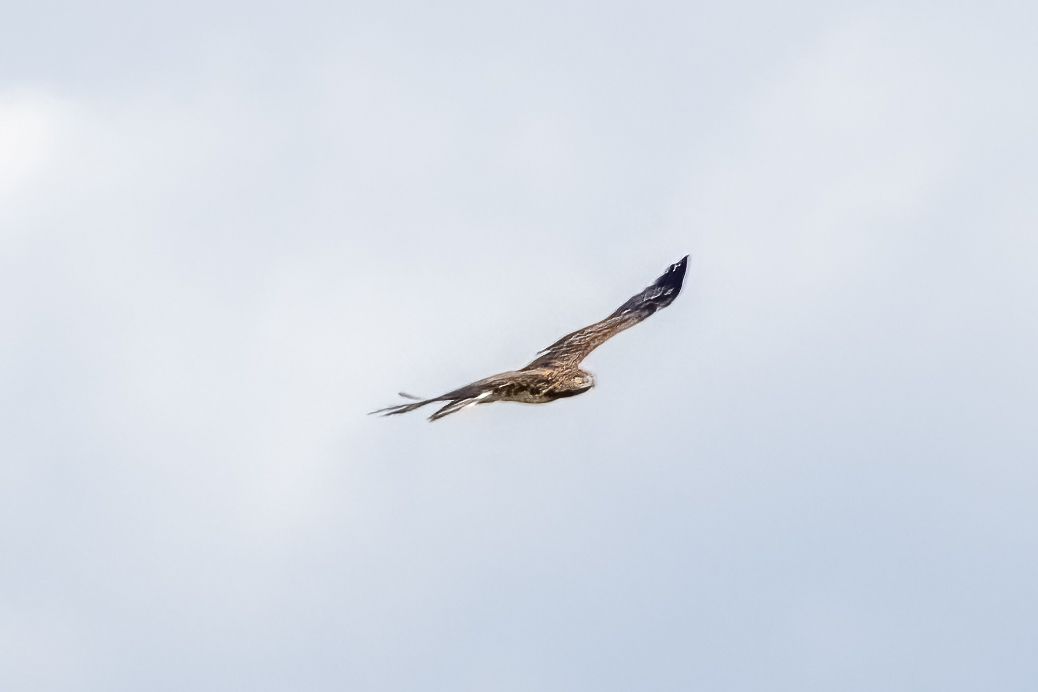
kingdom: Animalia
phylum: Chordata
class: Aves
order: Accipitriformes
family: Accipitridae
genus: Circaetus
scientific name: Circaetus gallicus
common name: Short-toed snake eagle
